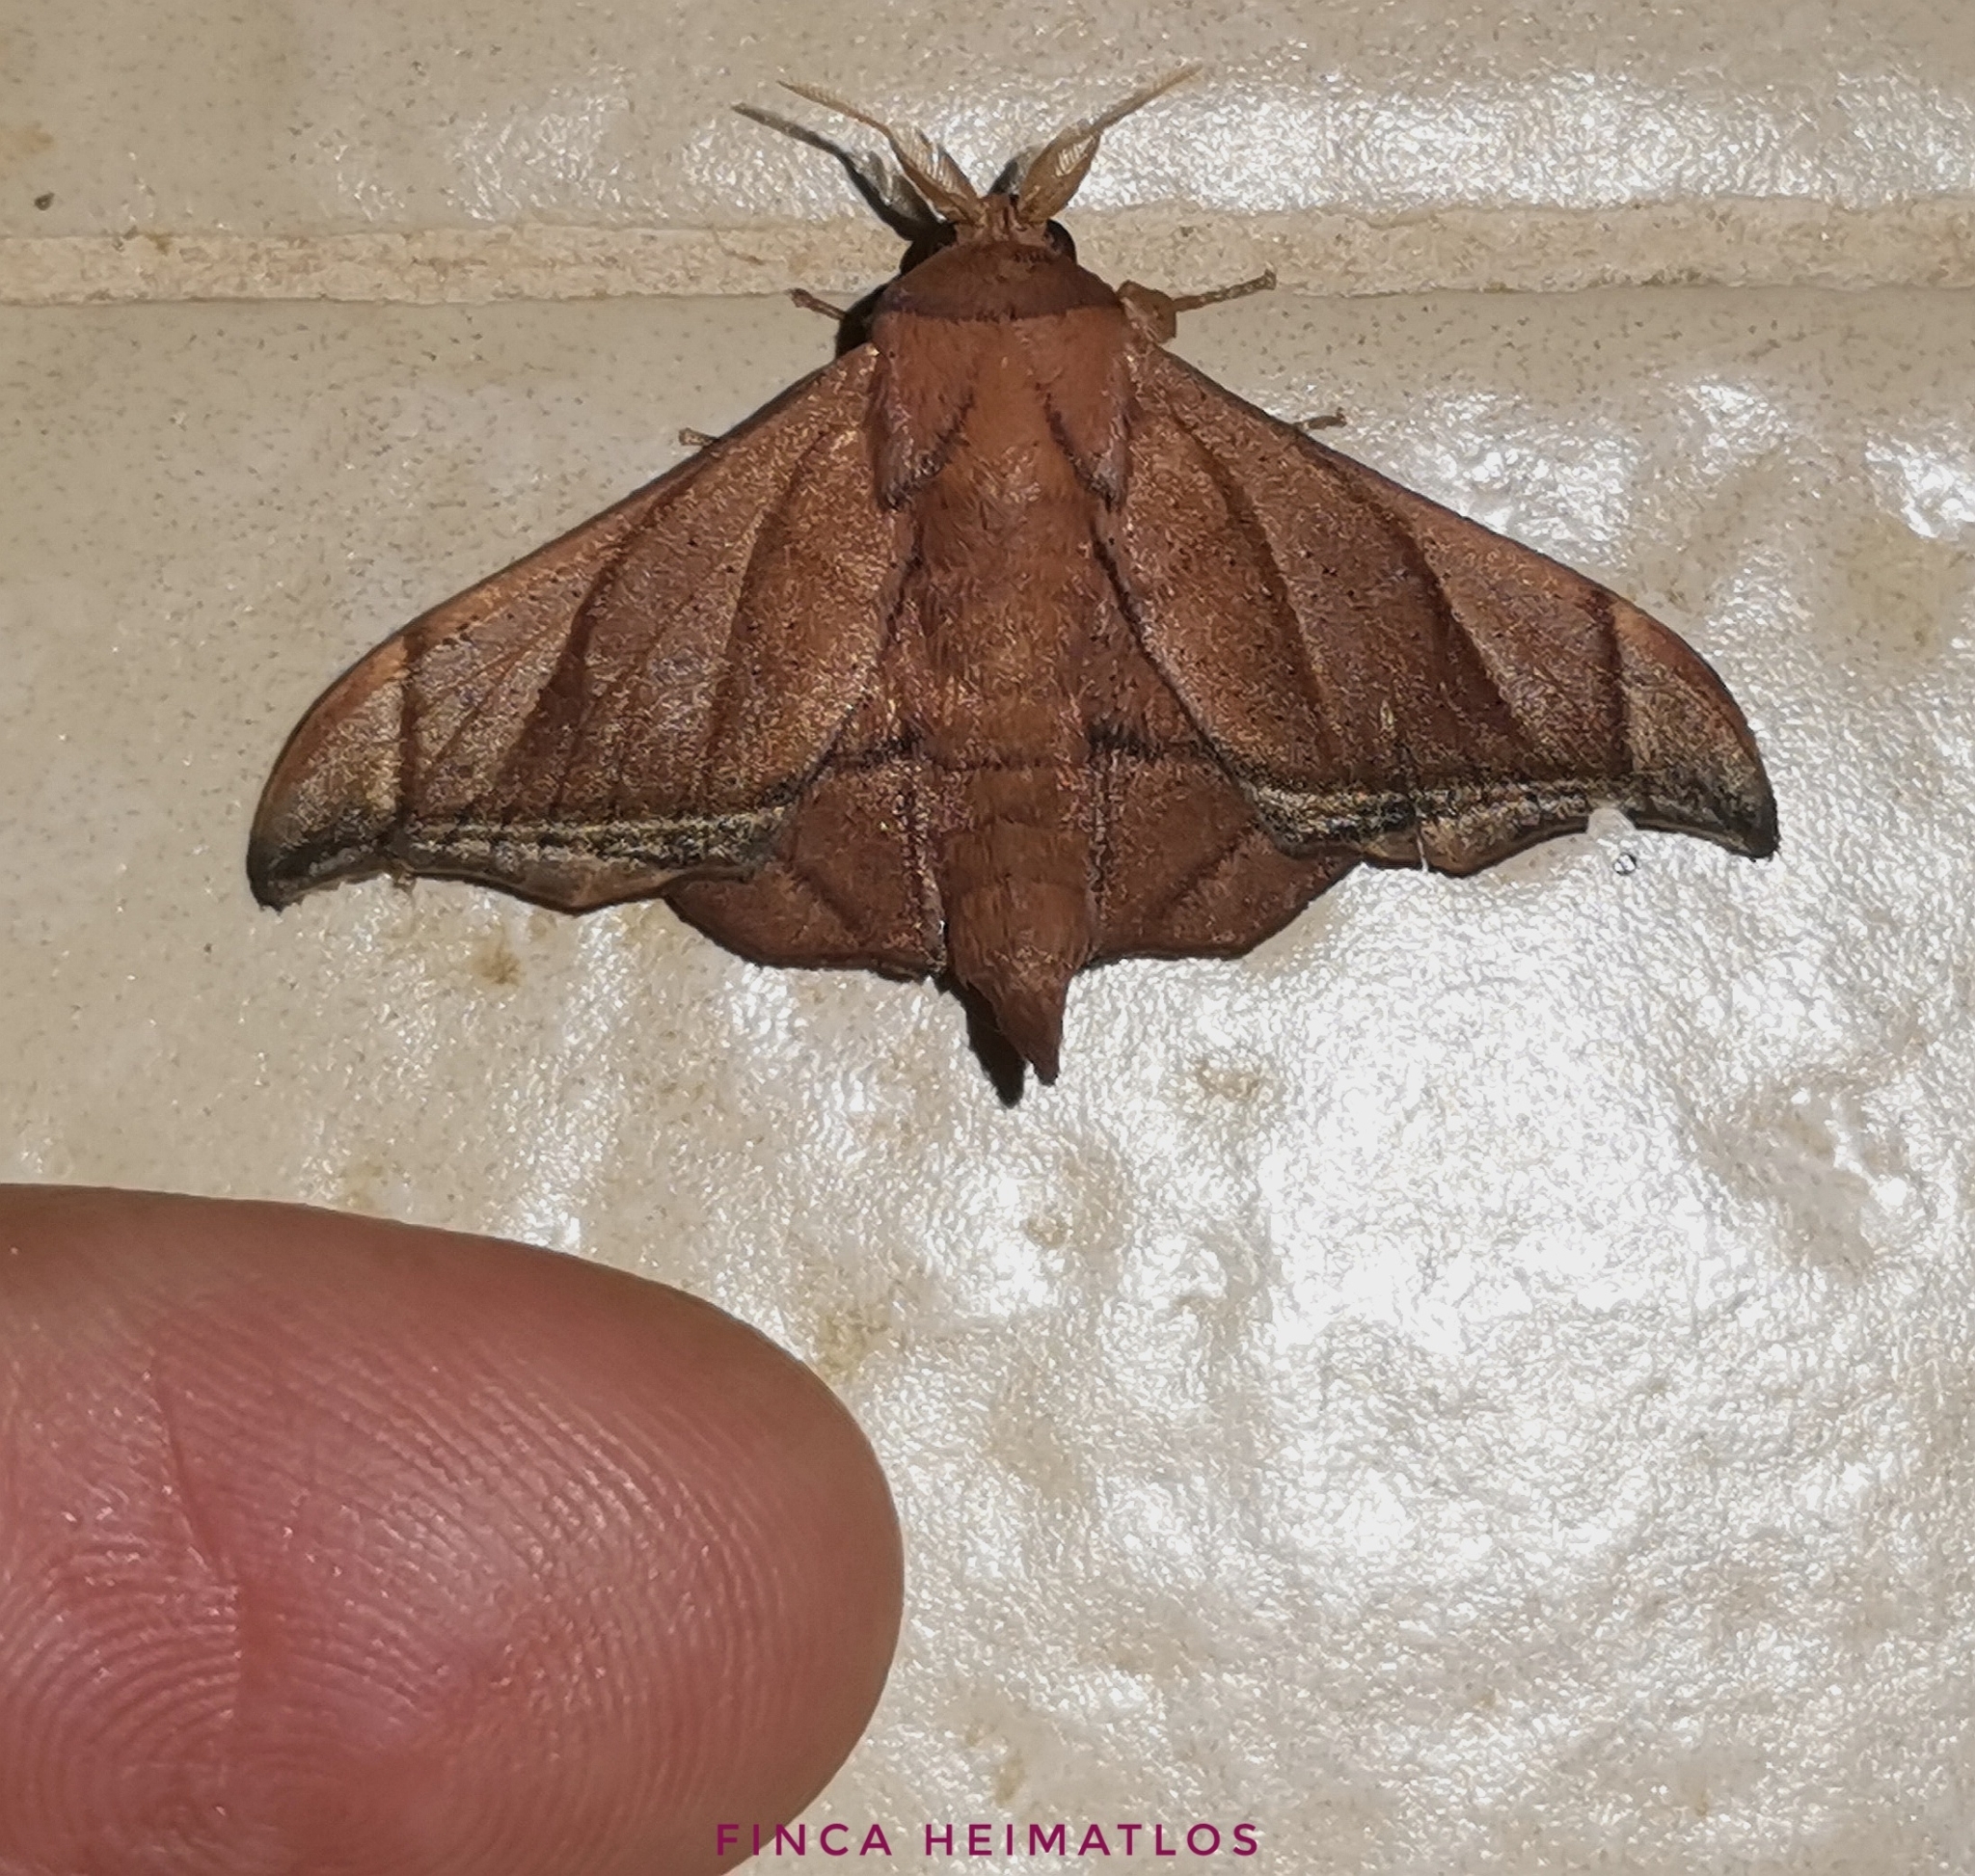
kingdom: Animalia
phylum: Arthropoda
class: Insecta
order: Lepidoptera
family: Mimallonidae
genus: Biterolfa
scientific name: Biterolfa rana
